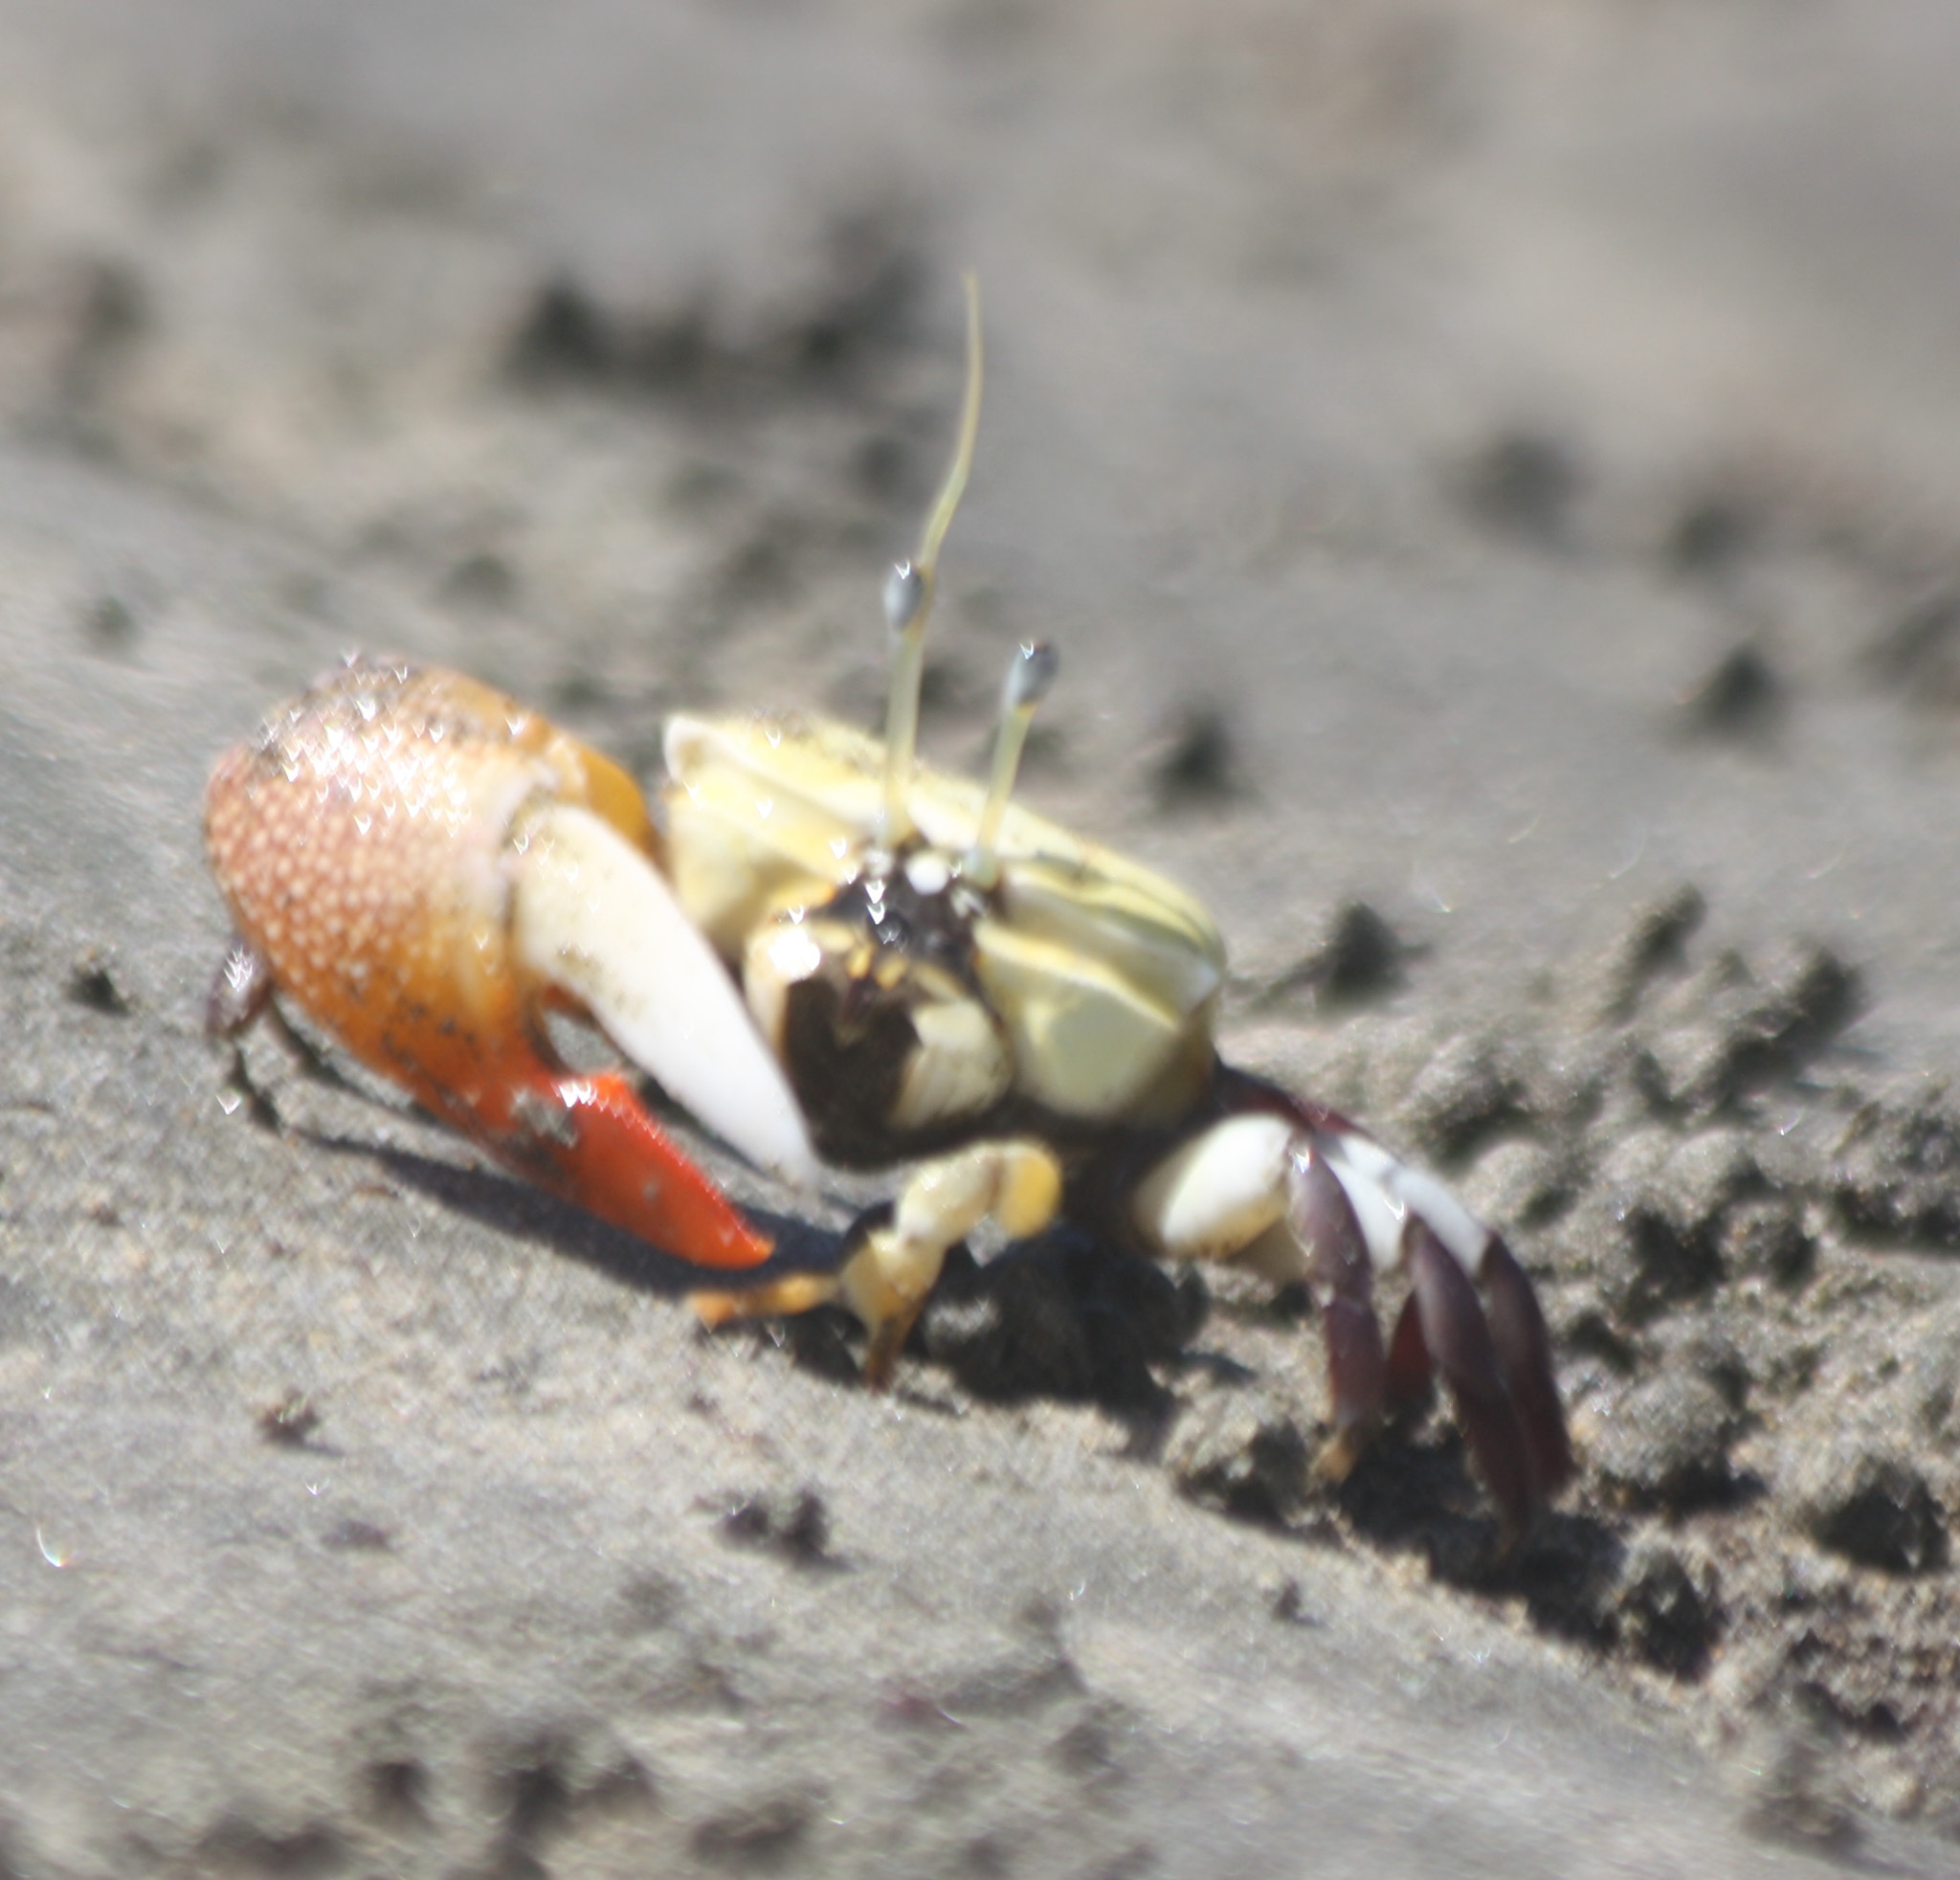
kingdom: Animalia
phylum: Arthropoda
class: Malacostraca
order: Decapoda
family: Ocypodidae
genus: Uca
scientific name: Uca stylifera
